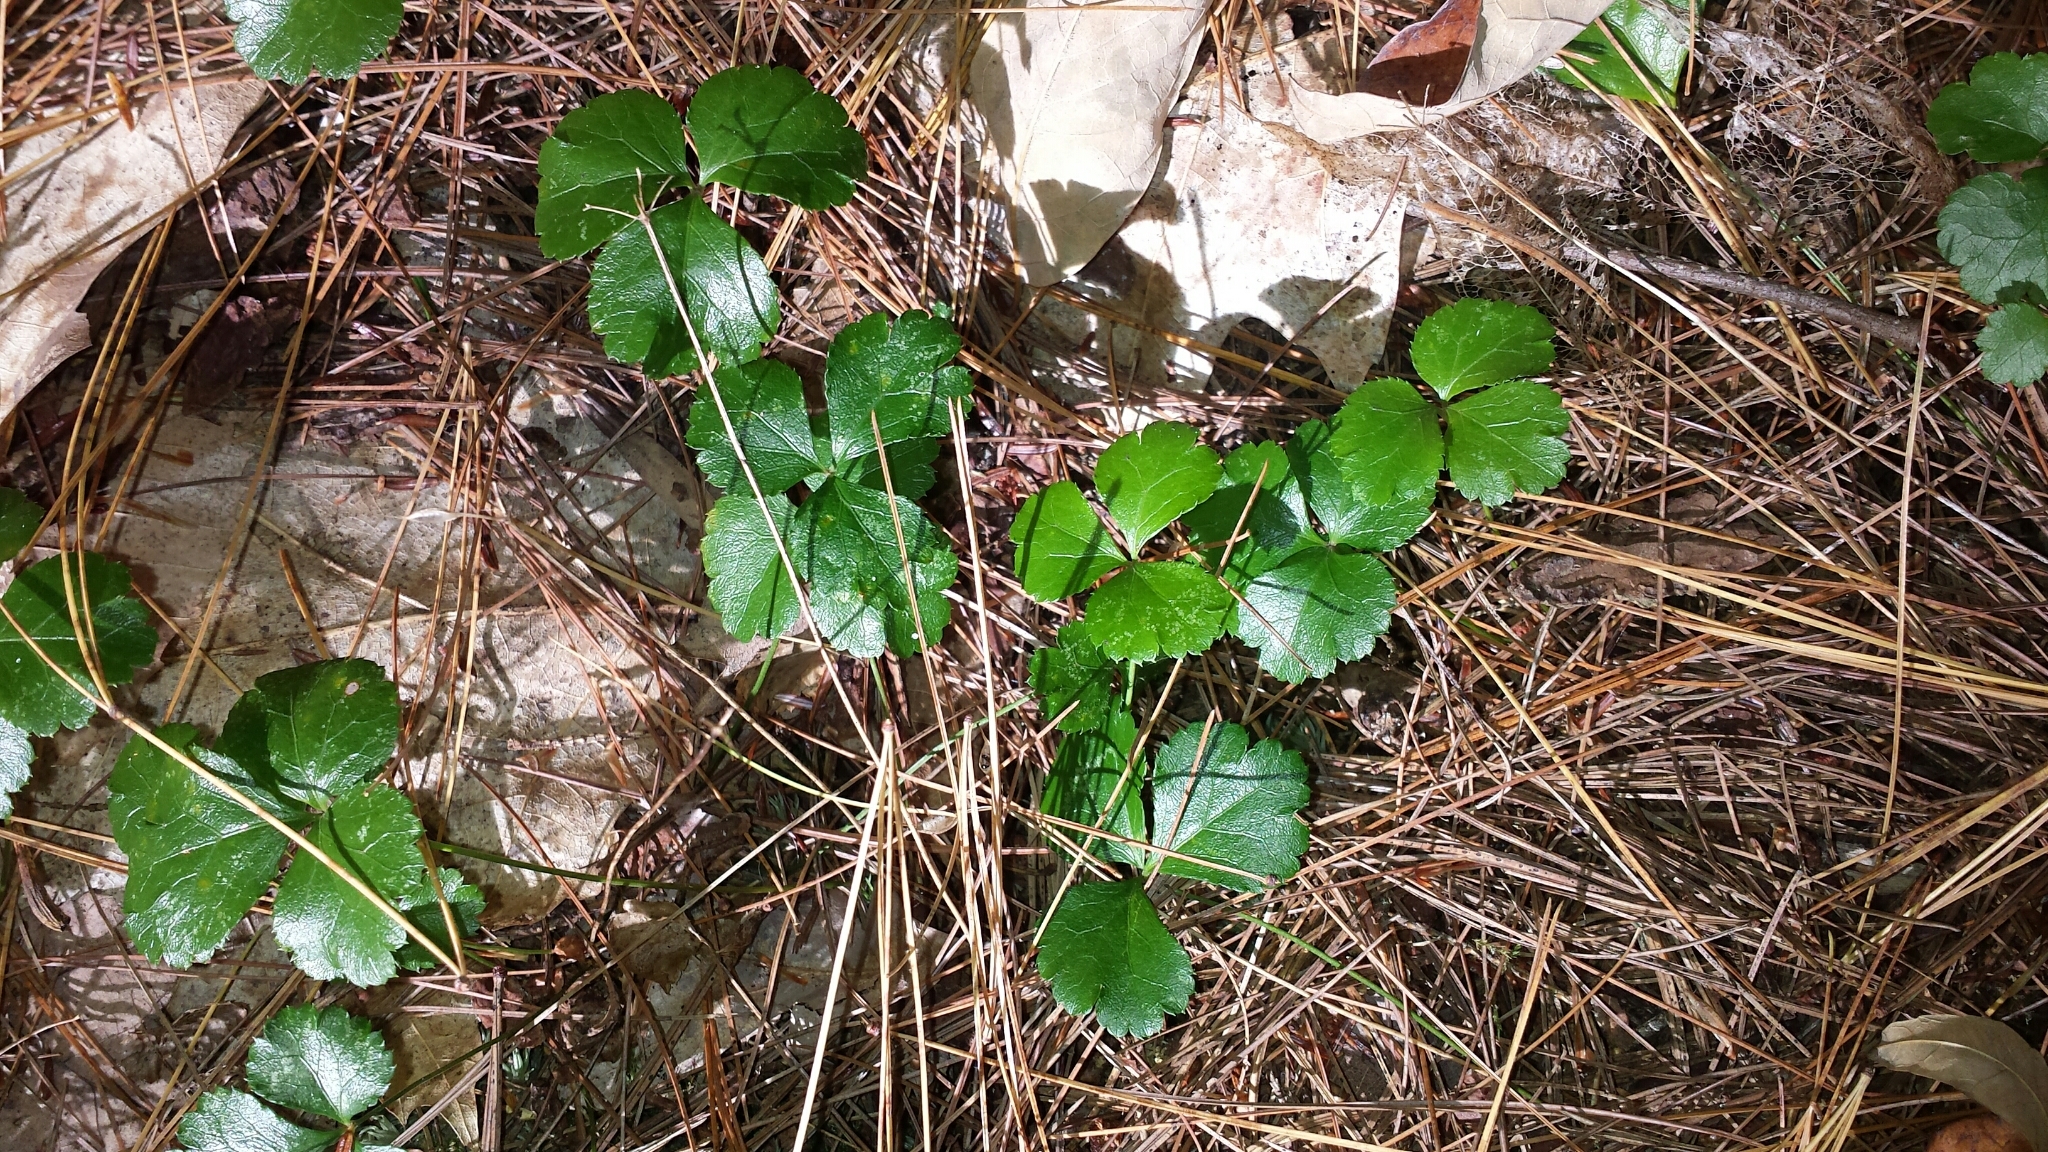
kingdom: Plantae
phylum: Tracheophyta
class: Magnoliopsida
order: Ranunculales
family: Ranunculaceae
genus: Coptis
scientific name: Coptis trifolia
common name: Canker-root
